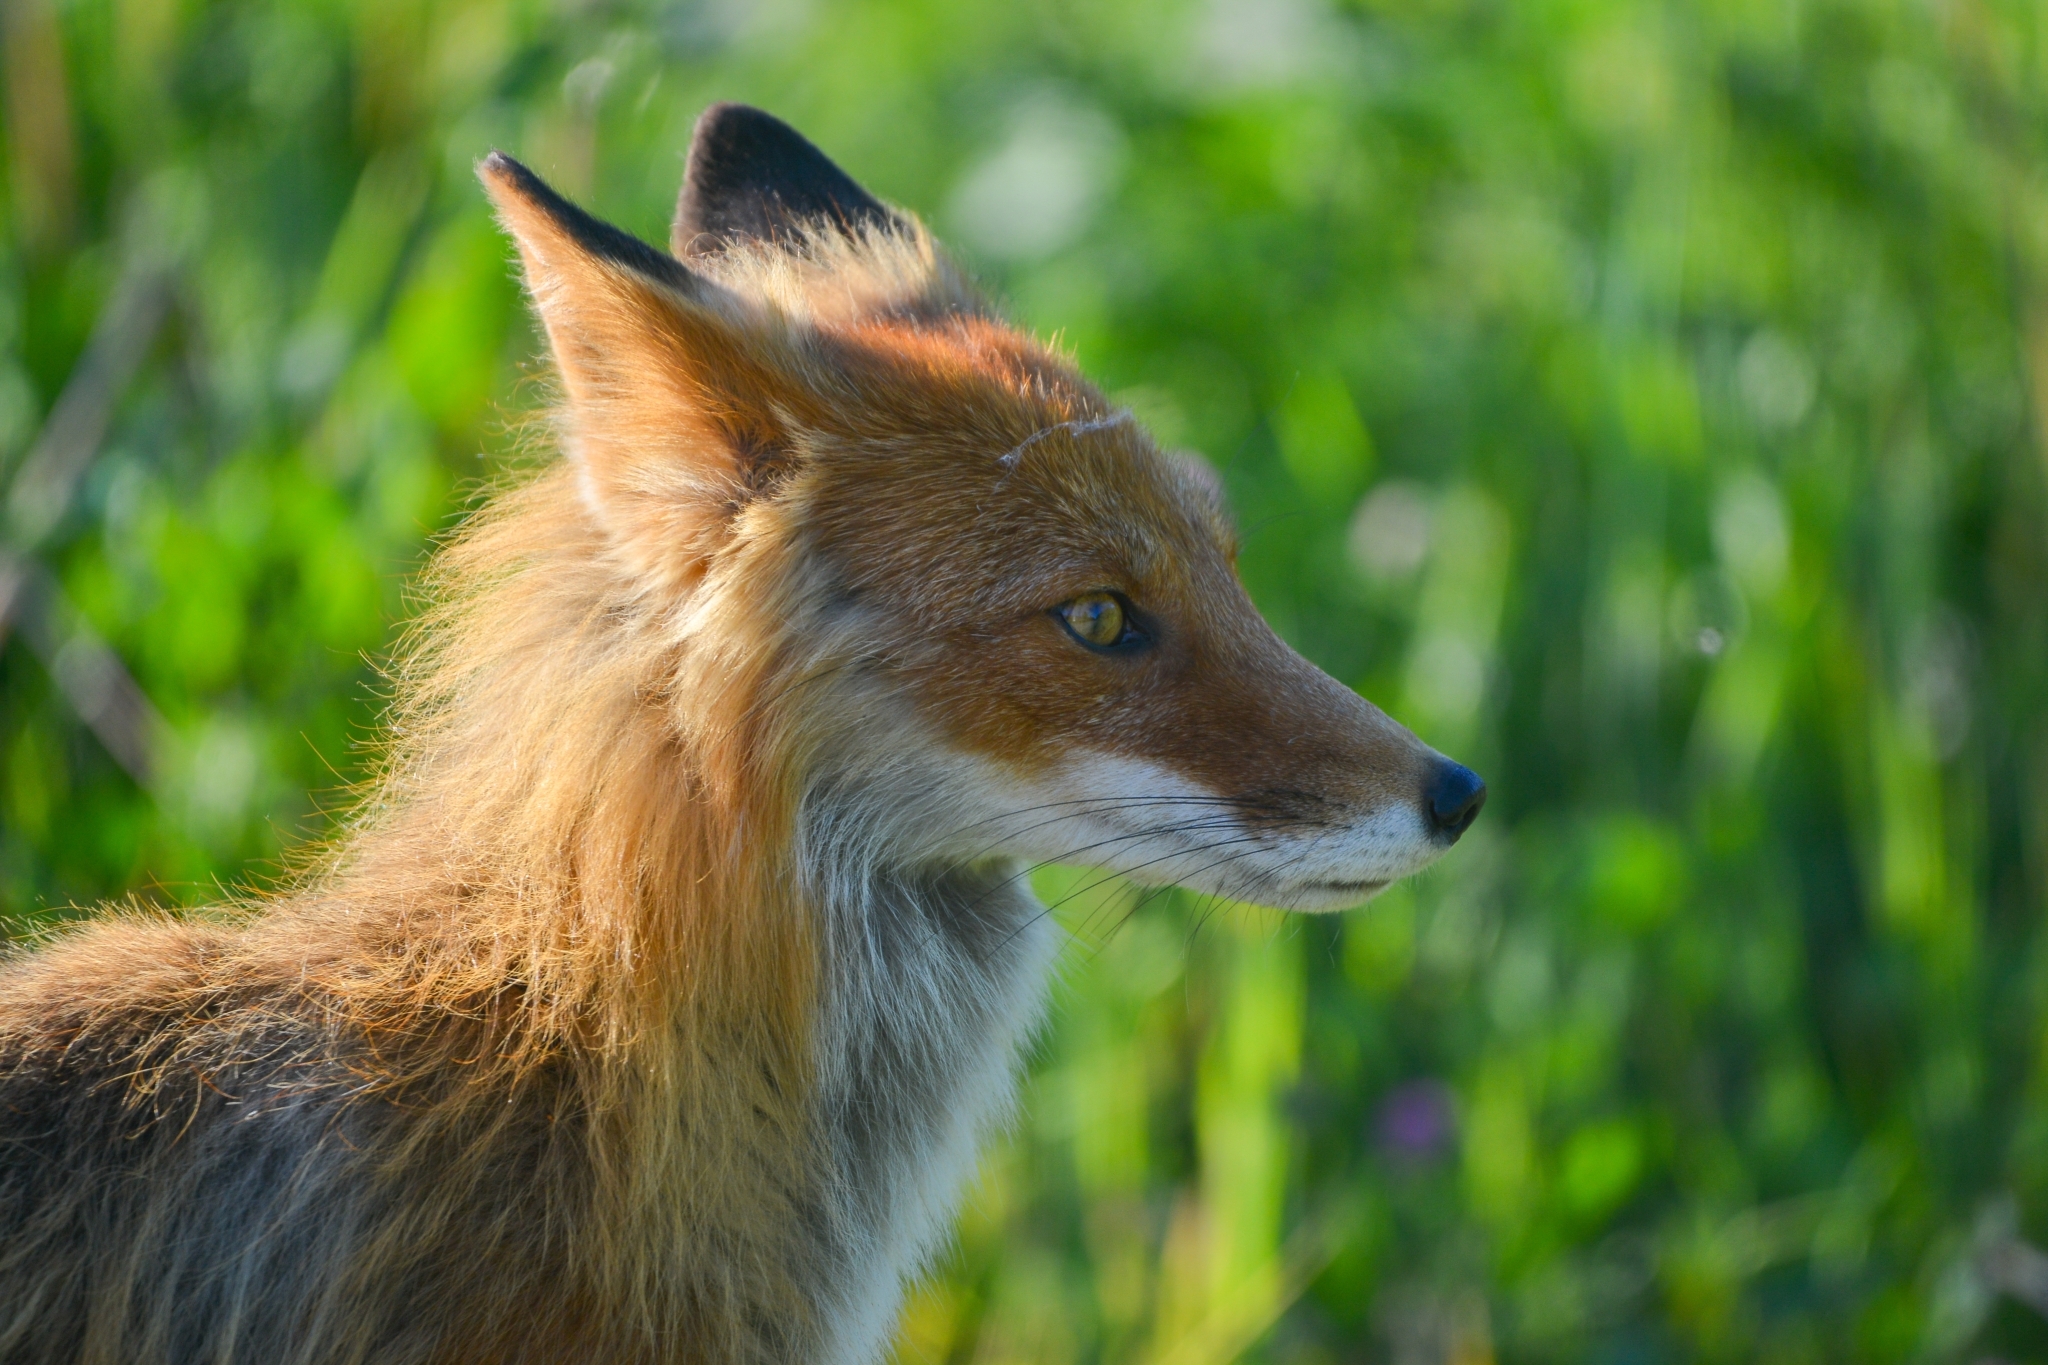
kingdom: Animalia
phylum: Chordata
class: Mammalia
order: Carnivora
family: Canidae
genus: Vulpes
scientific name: Vulpes vulpes
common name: Red fox
